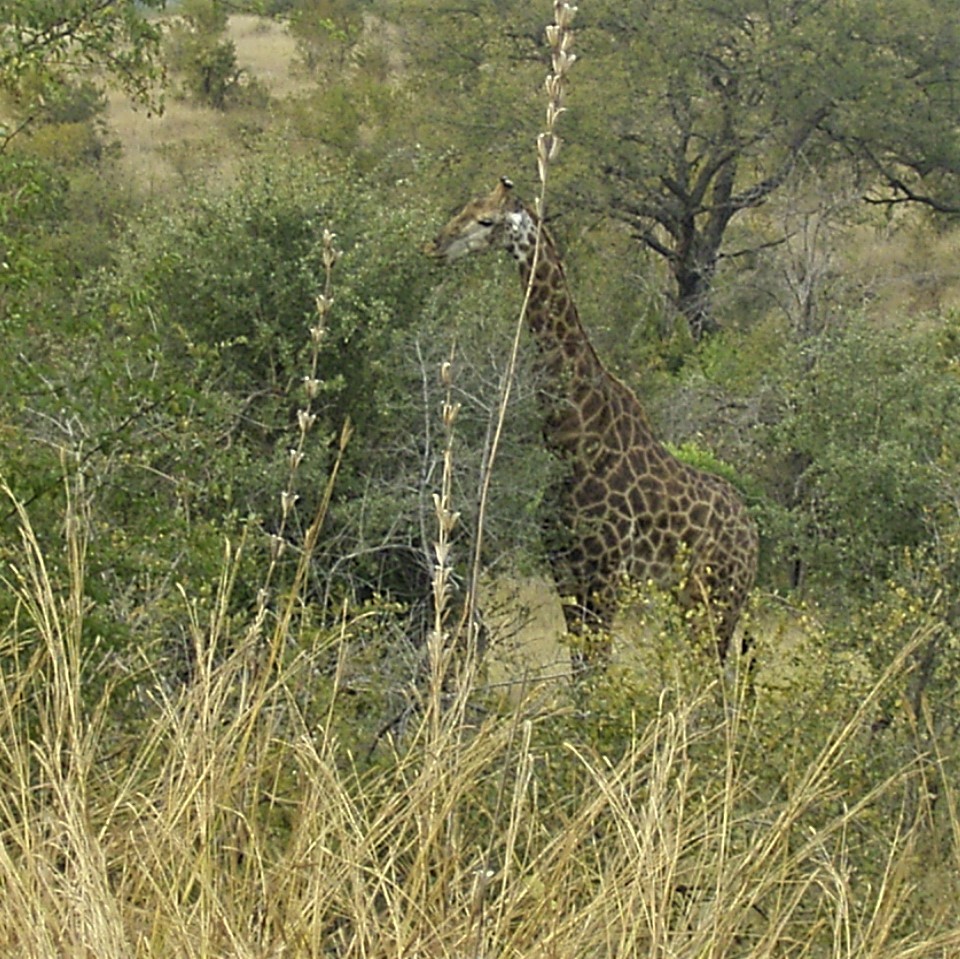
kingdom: Animalia
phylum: Chordata
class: Mammalia
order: Artiodactyla
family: Giraffidae
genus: Giraffa
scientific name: Giraffa giraffa
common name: Southern giraffe
